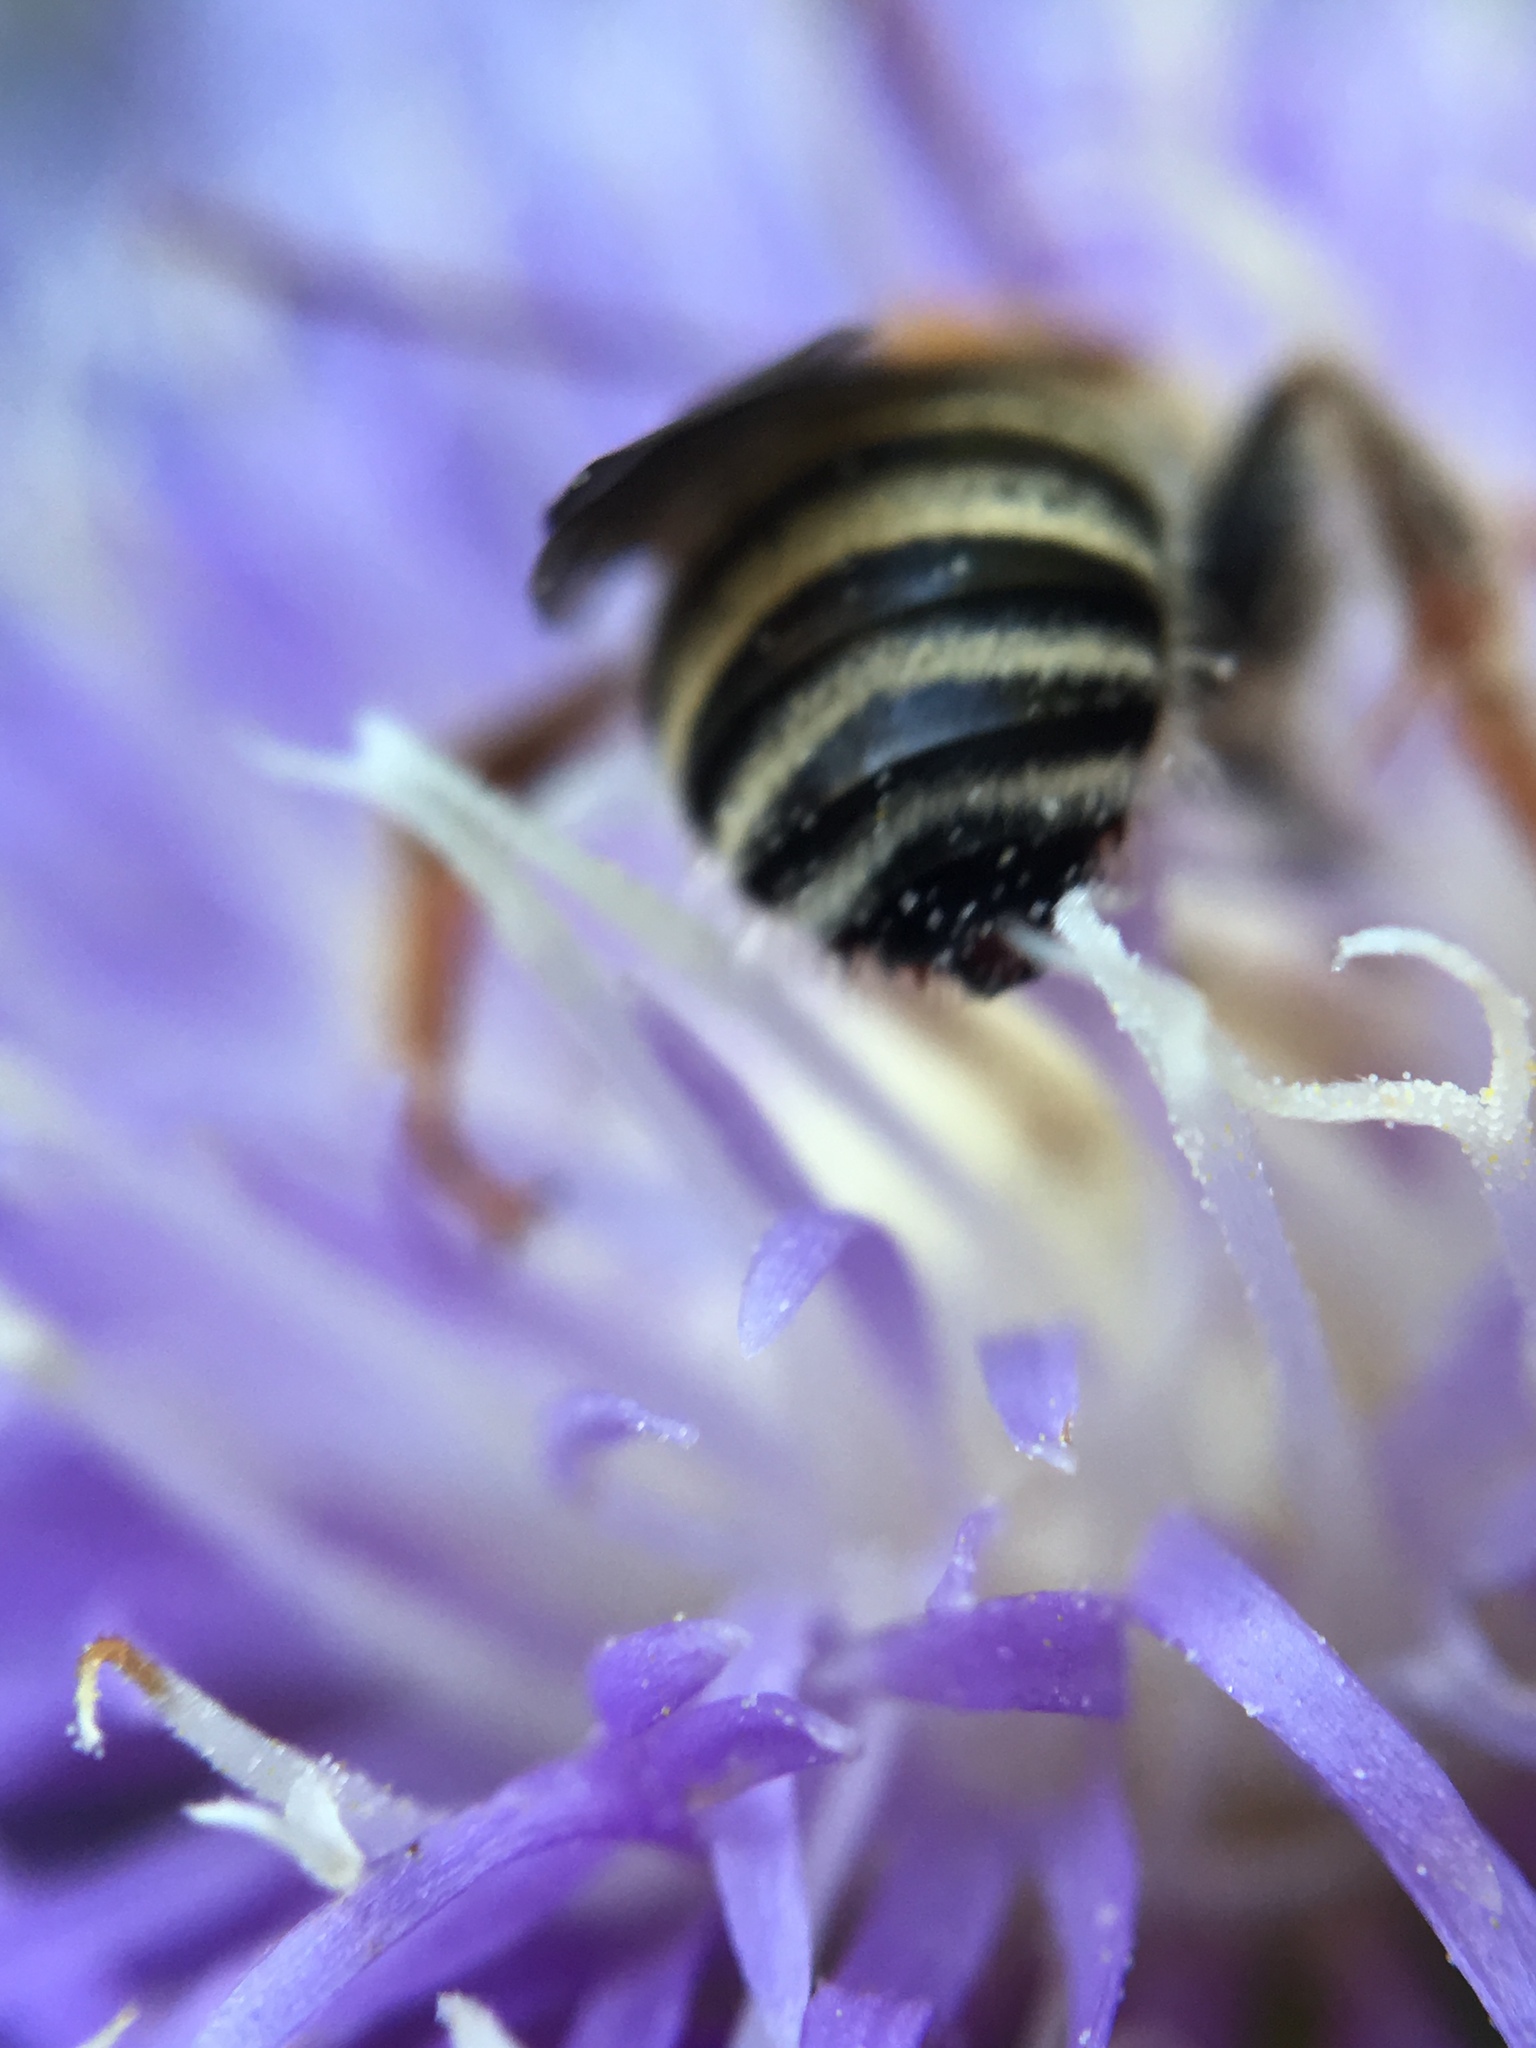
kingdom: Animalia
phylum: Arthropoda
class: Insecta
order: Hymenoptera
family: Apidae
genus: Melissodes
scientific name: Melissodes tepaneca
